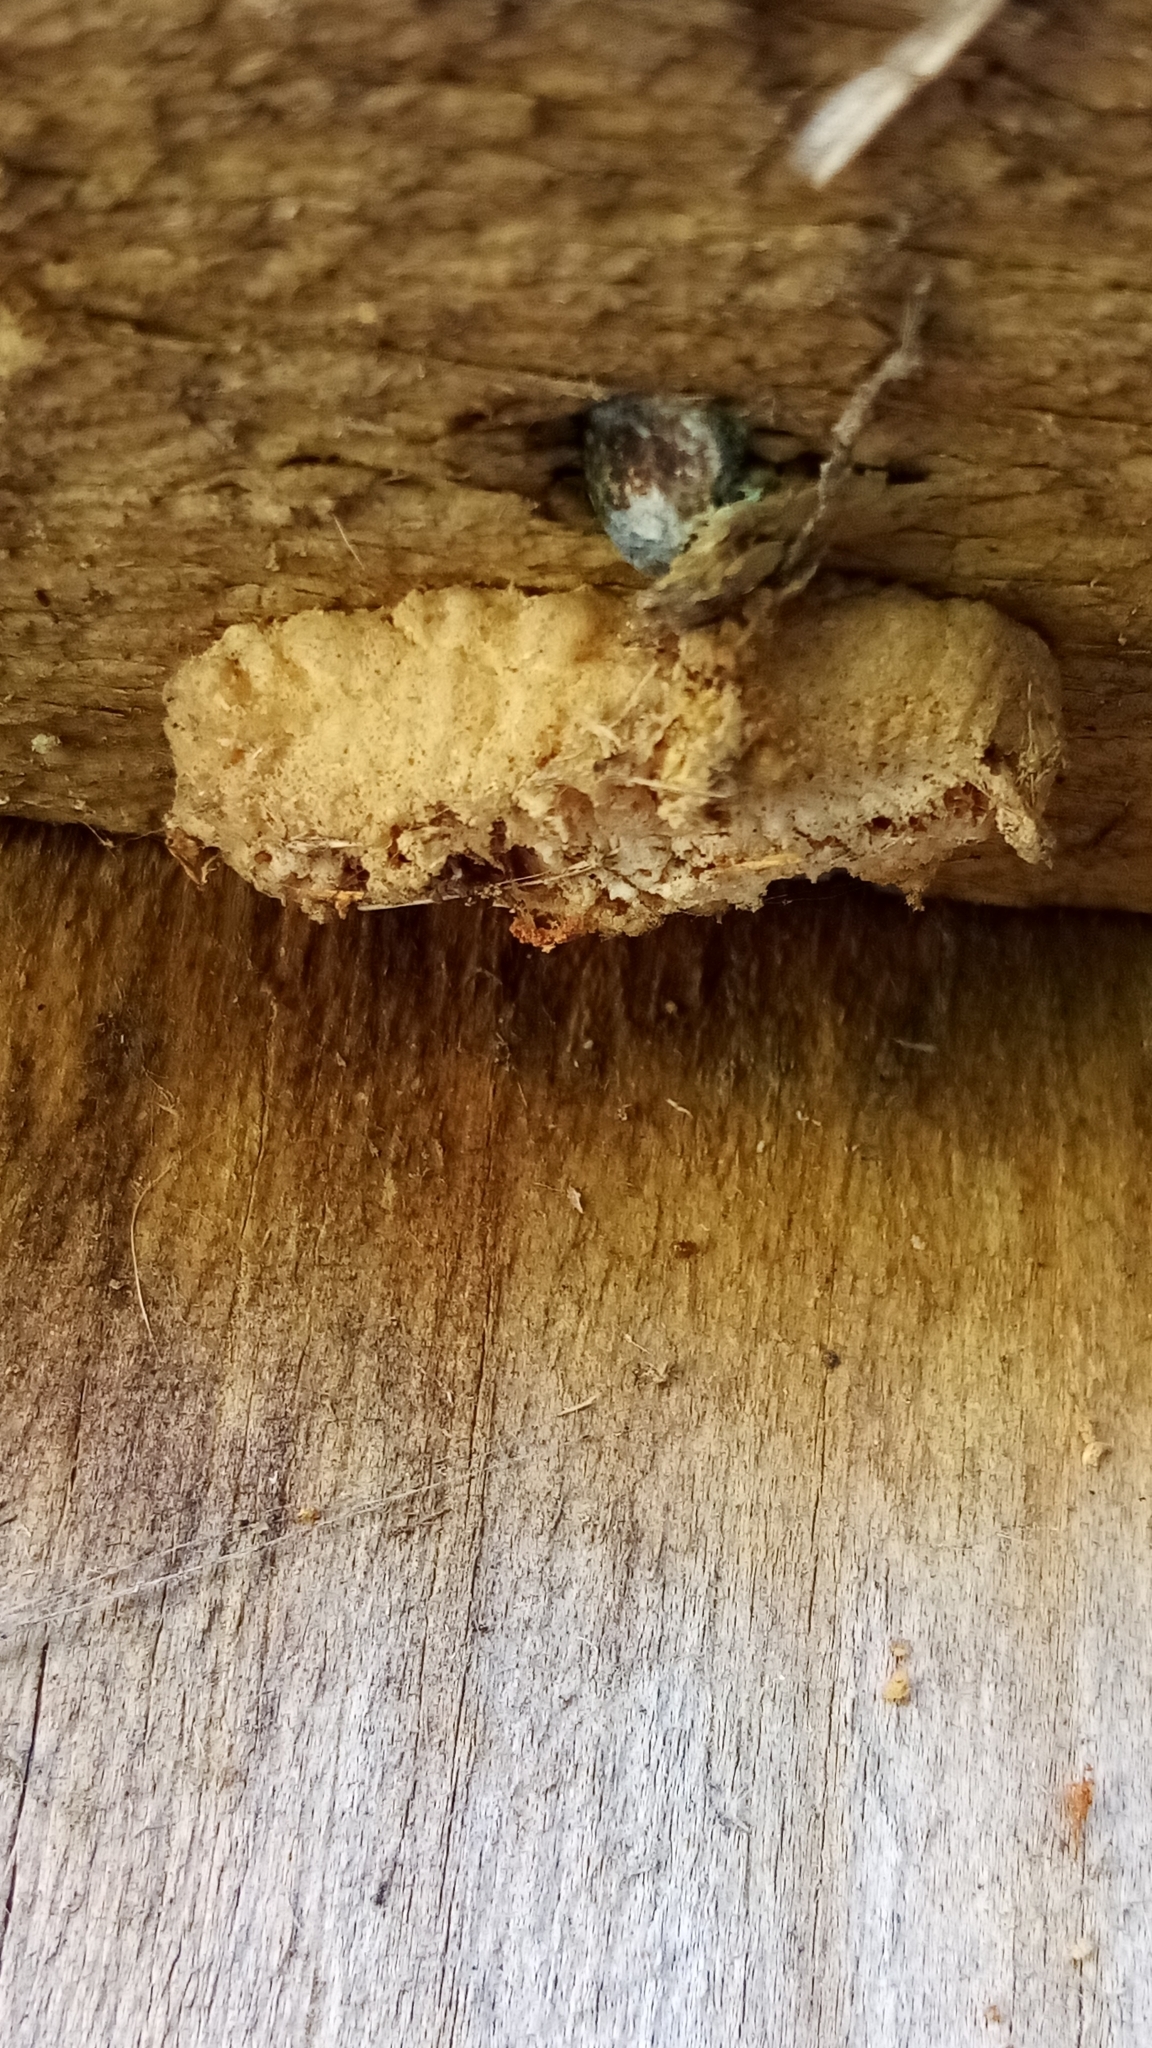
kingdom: Animalia
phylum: Arthropoda
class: Insecta
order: Mantodea
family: Miomantidae
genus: Miomantis
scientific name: Miomantis caffra
